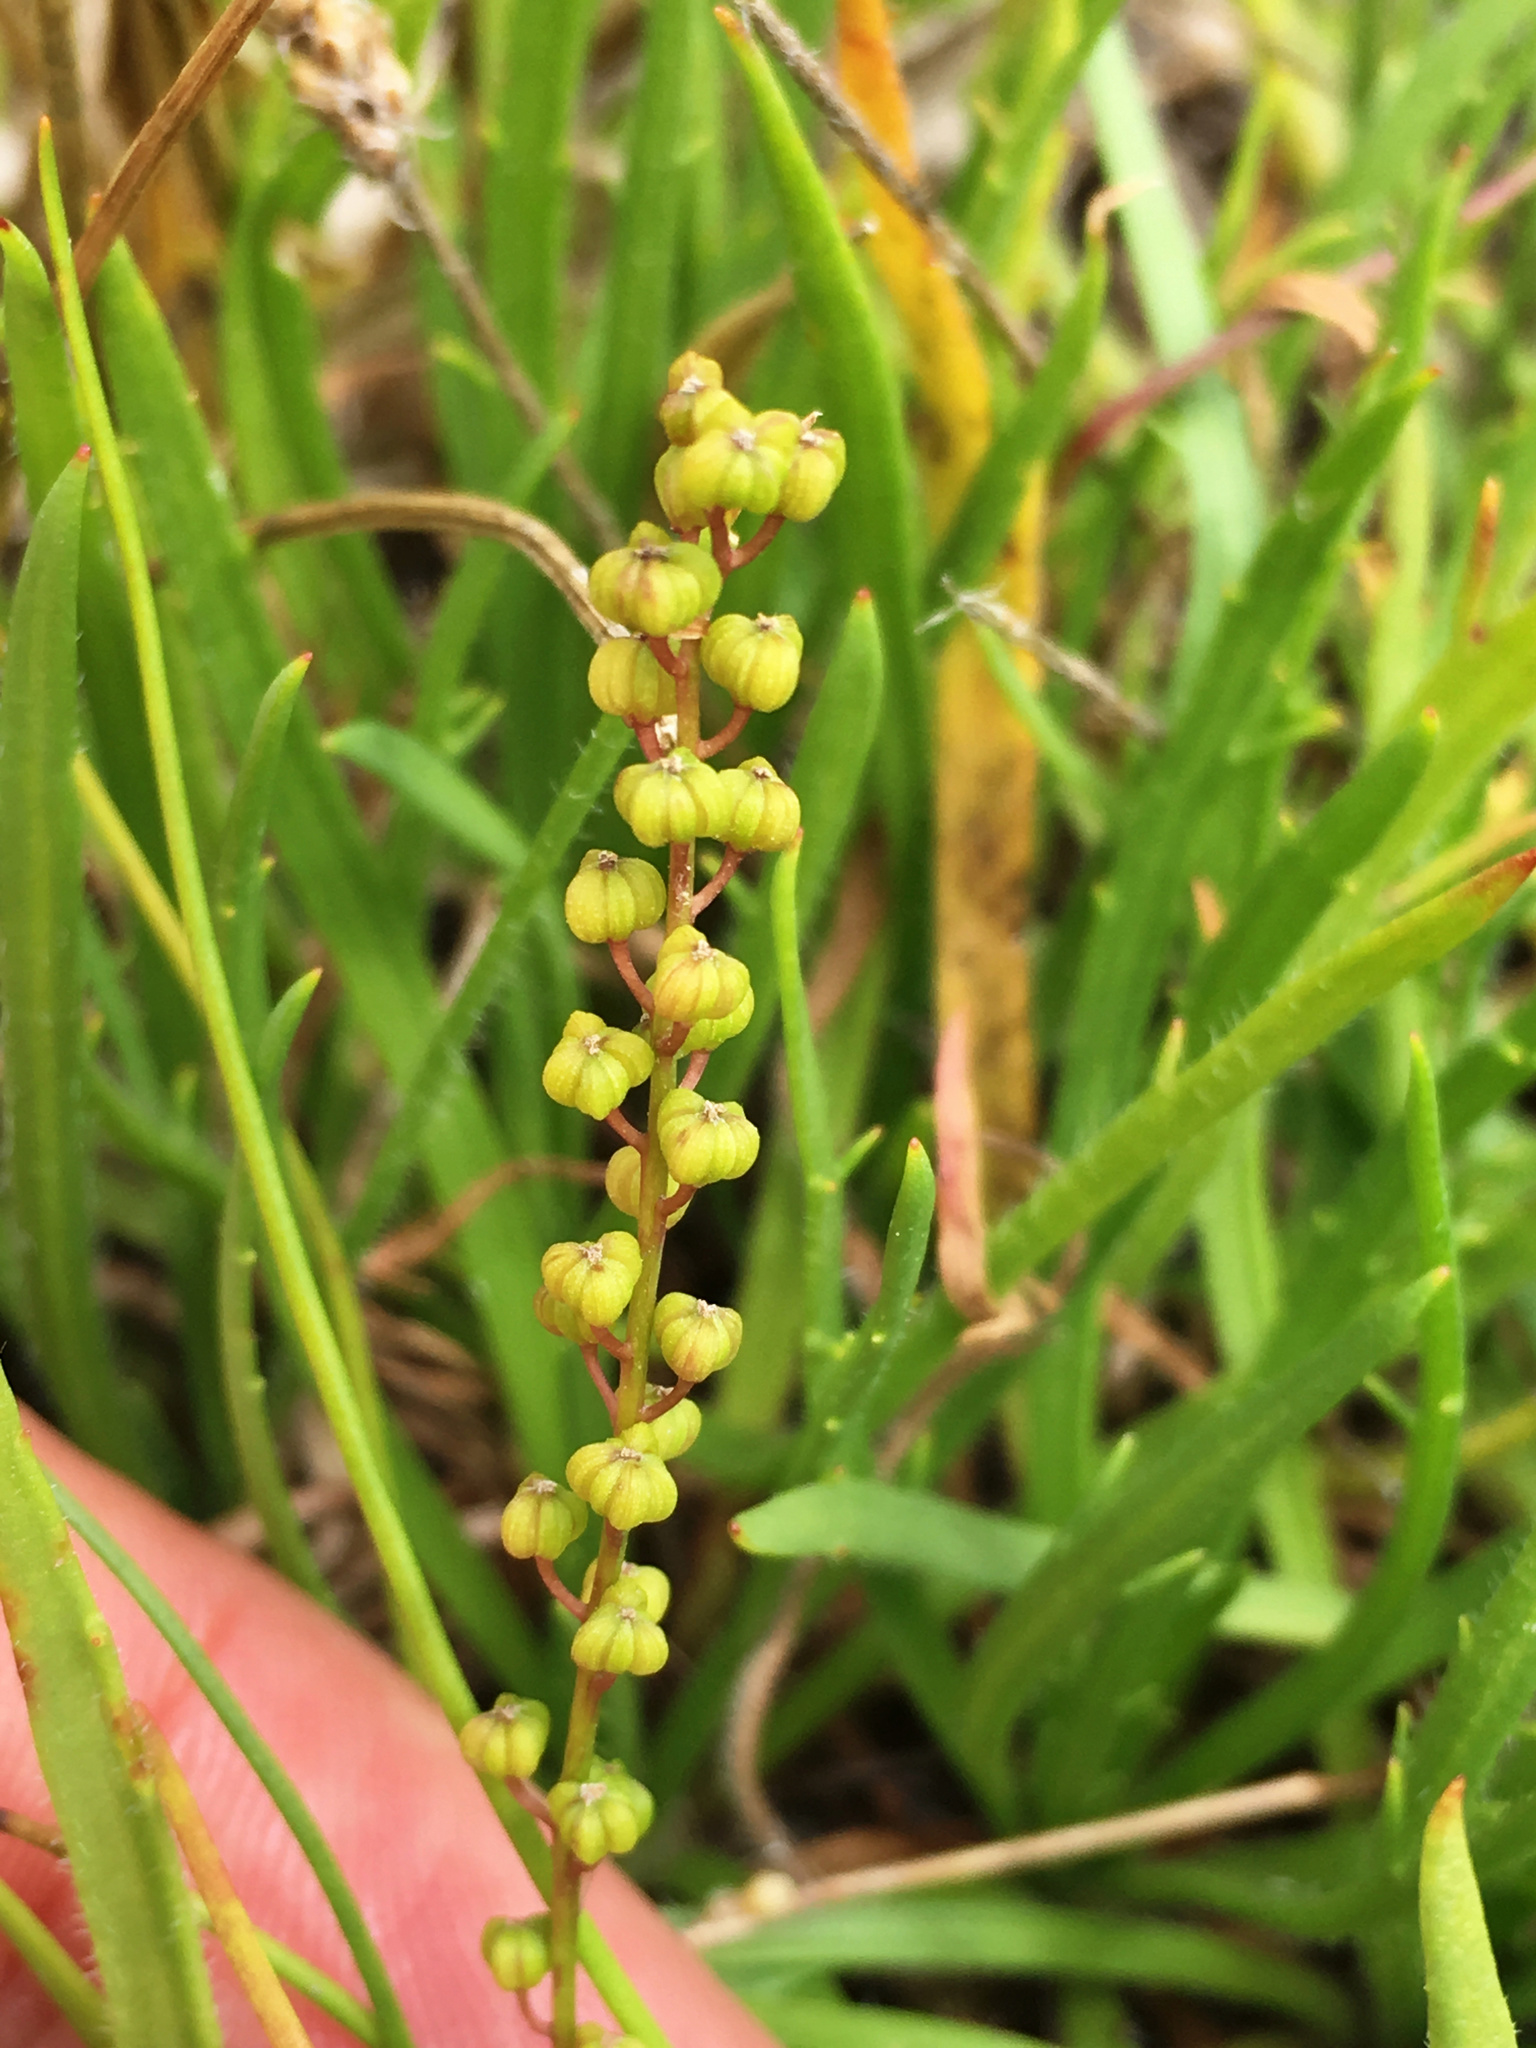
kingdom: Plantae
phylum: Tracheophyta
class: Liliopsida
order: Alismatales
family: Juncaginaceae
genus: Triglochin
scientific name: Triglochin striata
